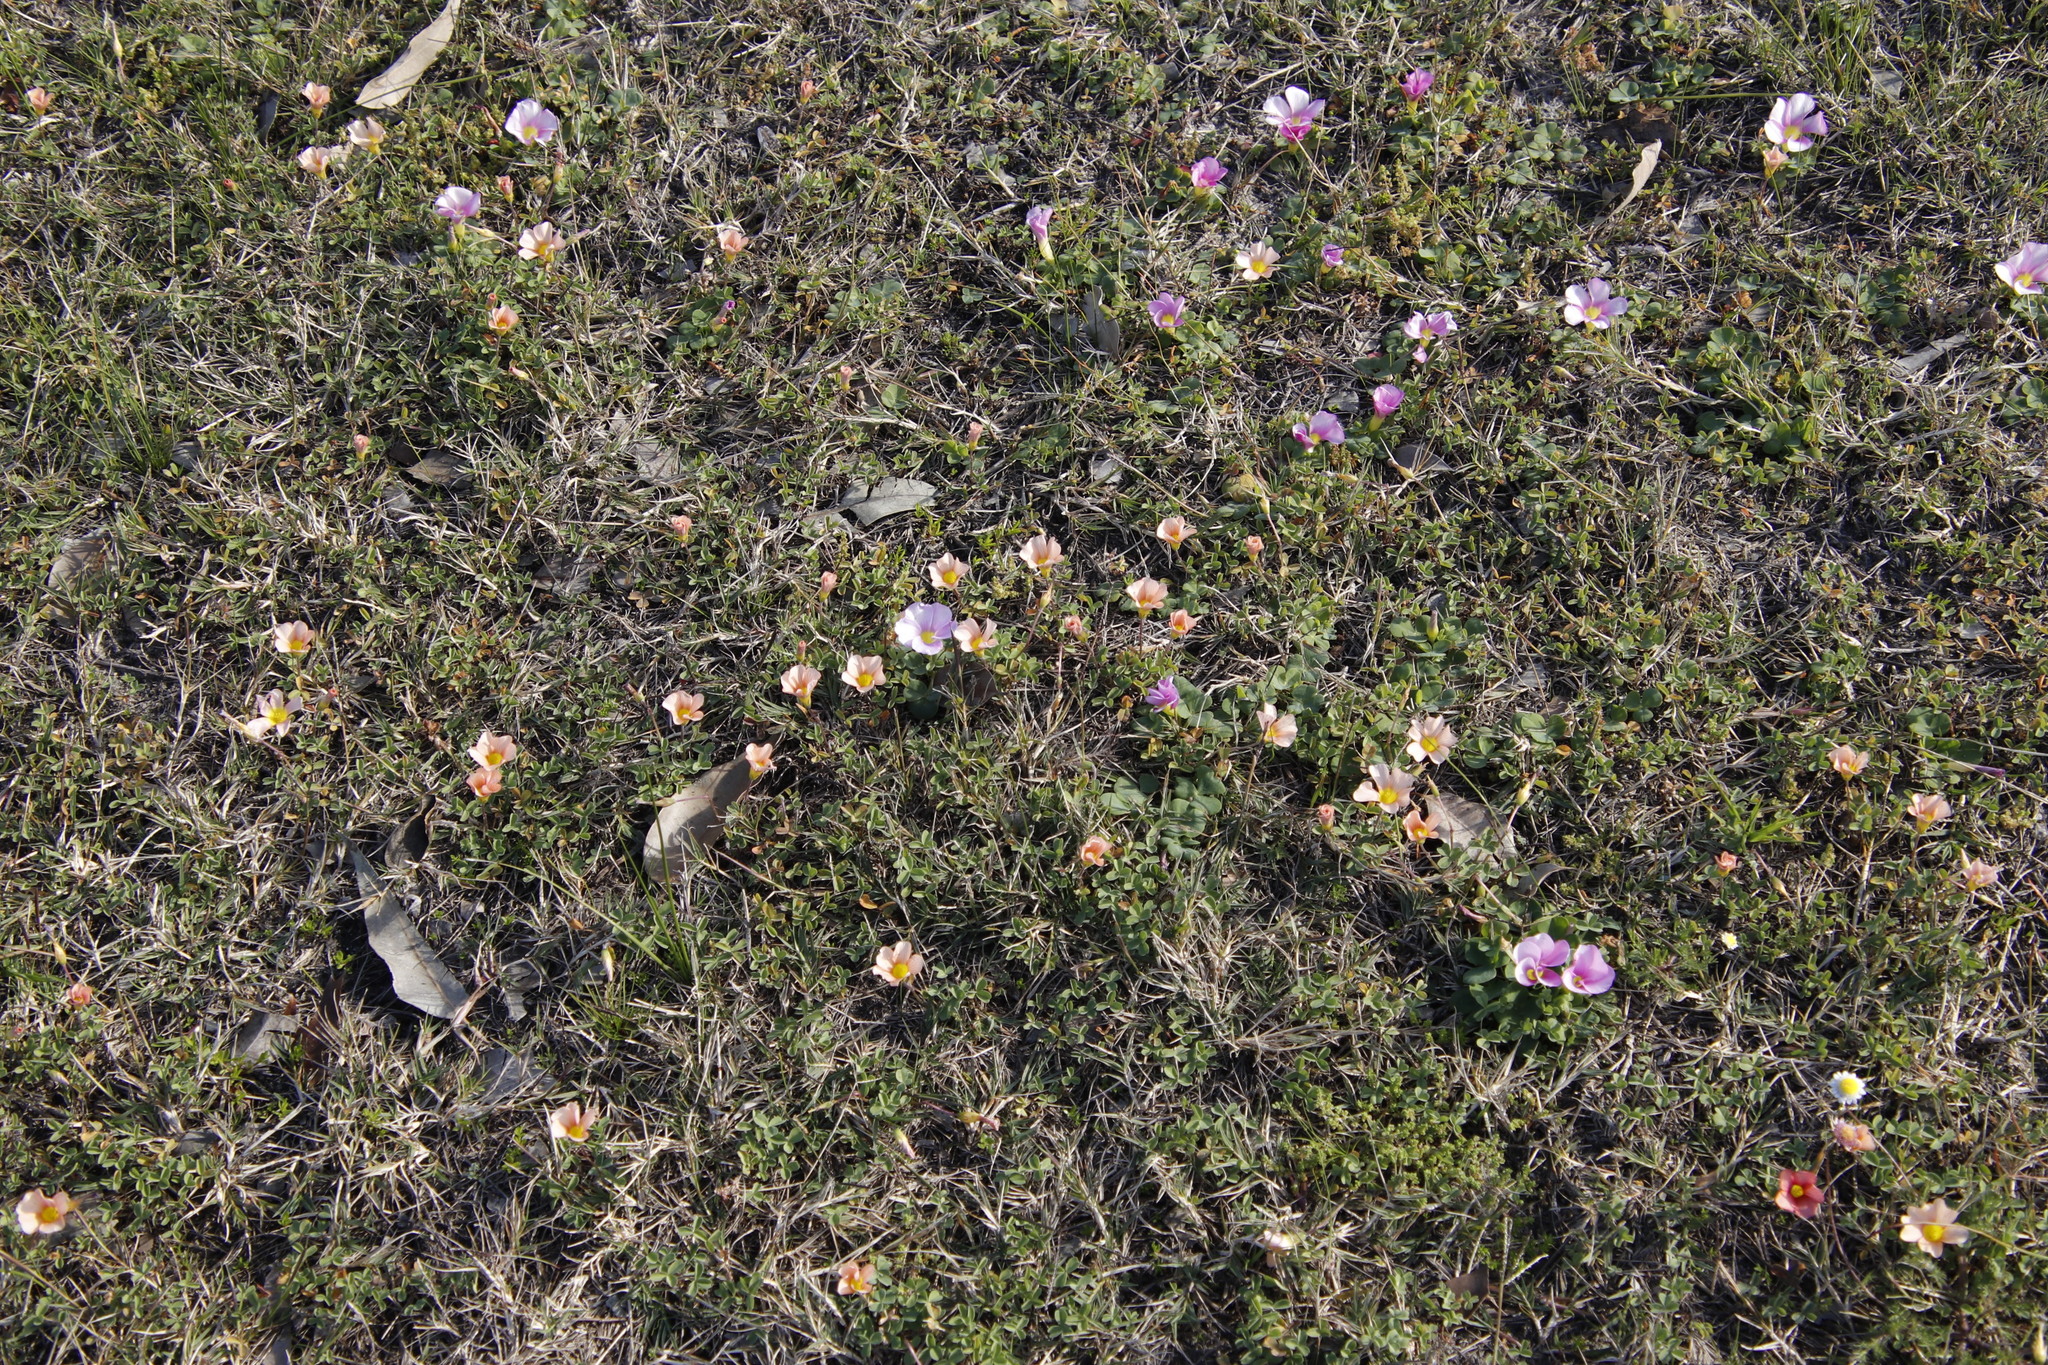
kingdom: Plantae
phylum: Tracheophyta
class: Magnoliopsida
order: Oxalidales
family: Oxalidaceae
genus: Oxalis
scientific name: Oxalis purpurea
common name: Purple woodsorrel
